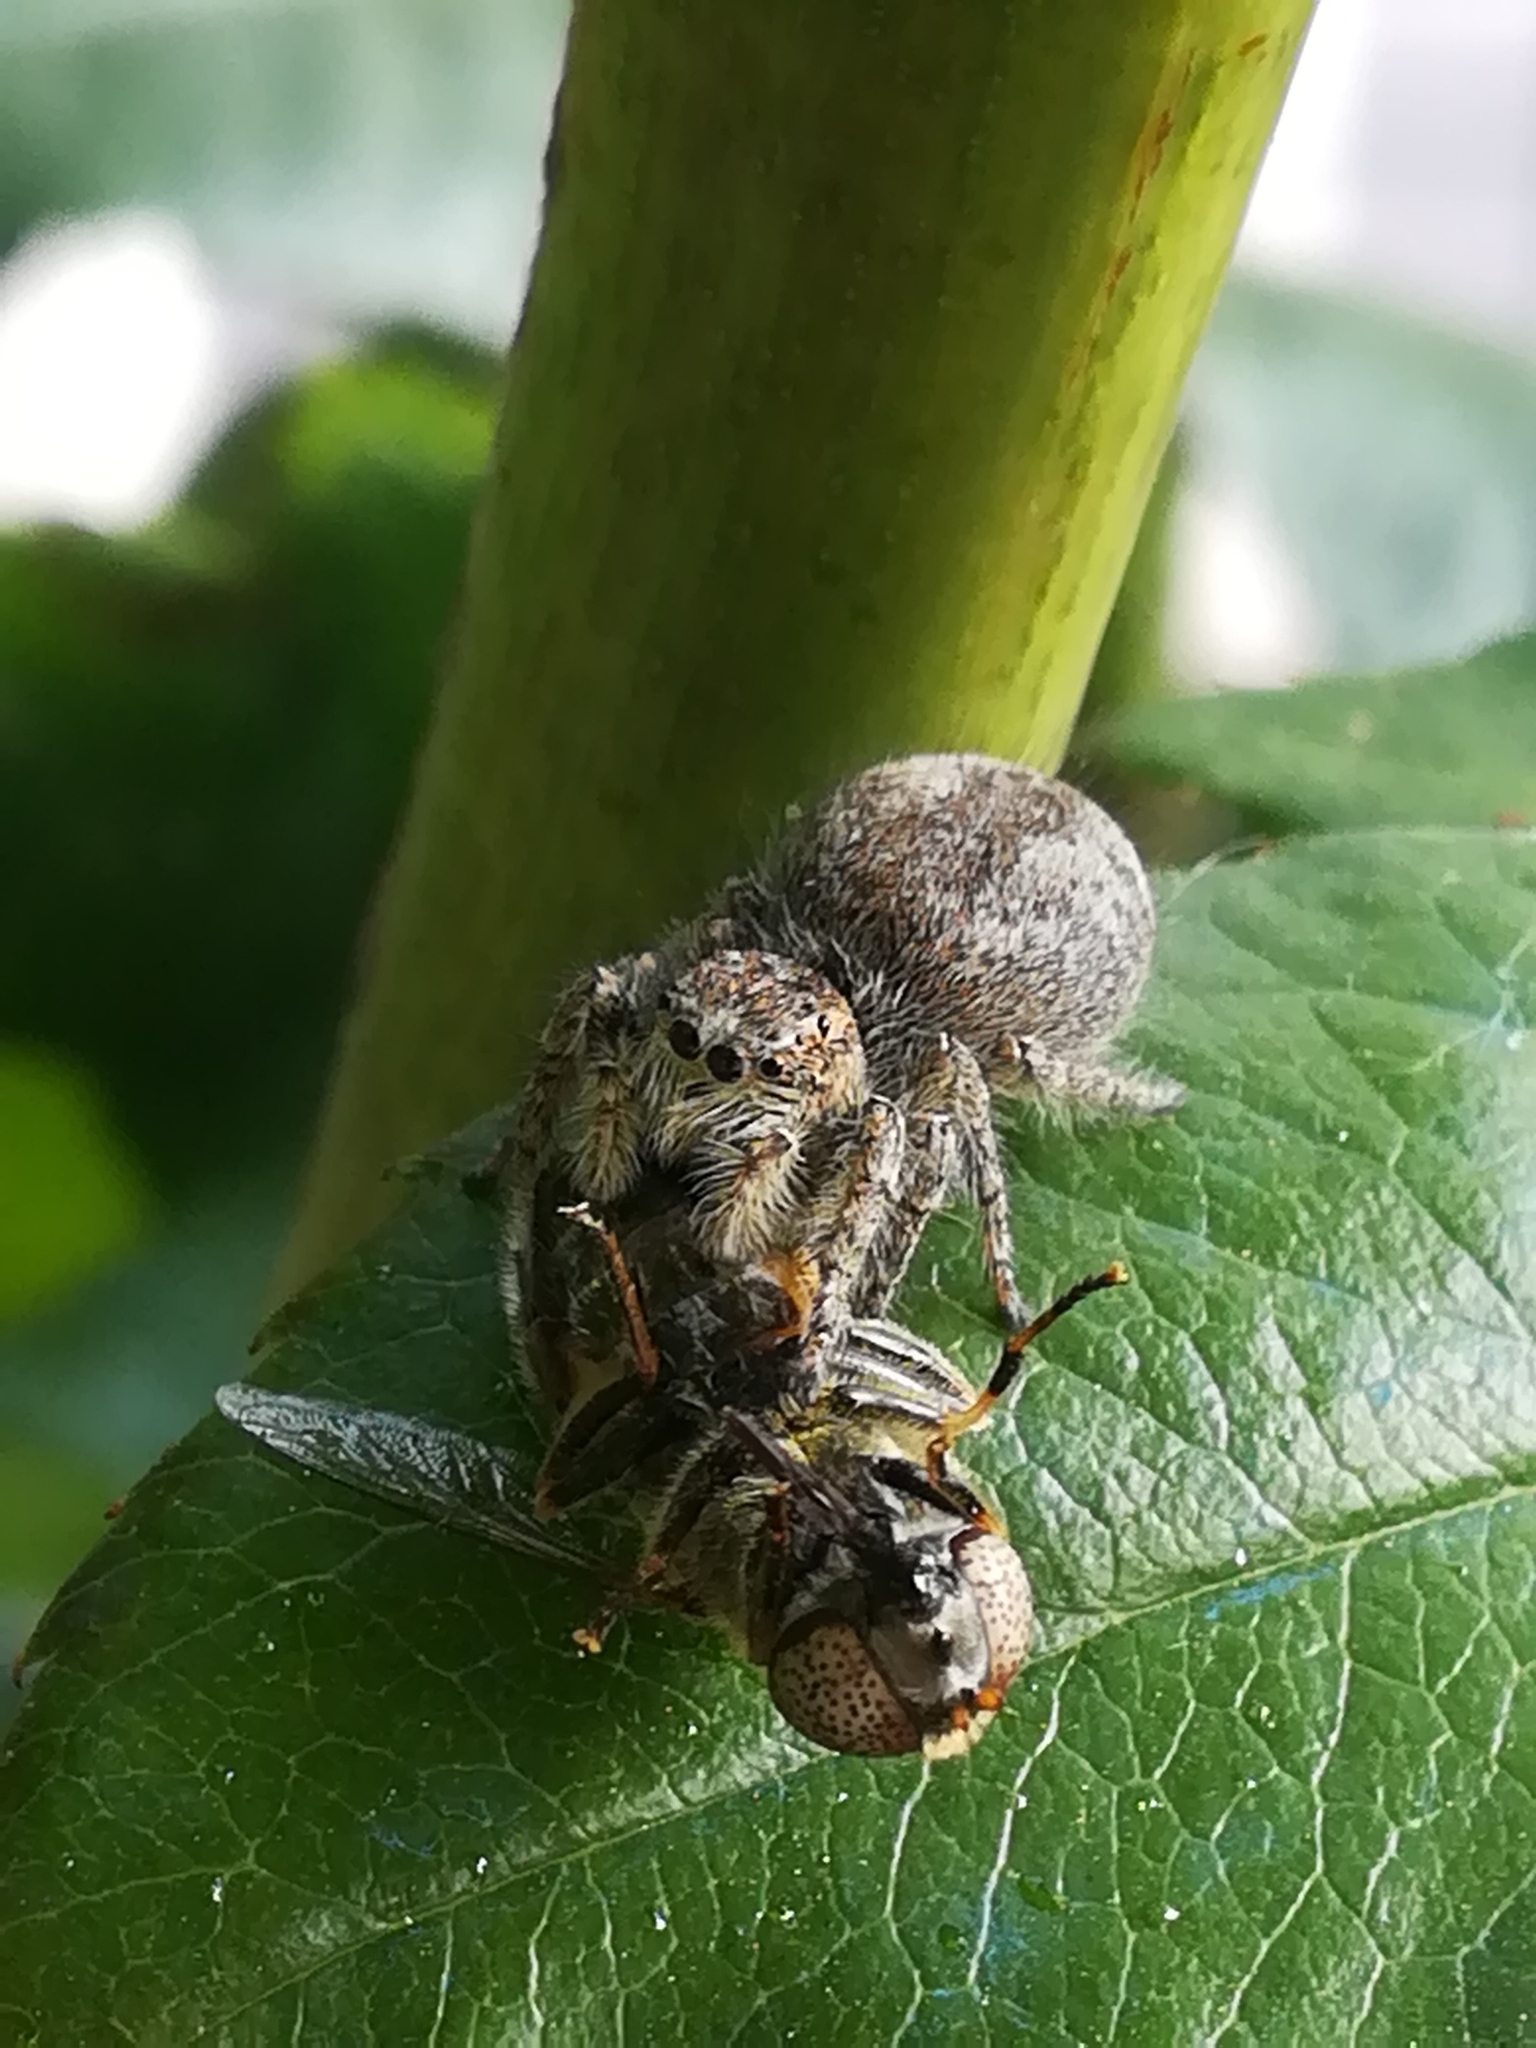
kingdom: Animalia
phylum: Arthropoda
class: Arachnida
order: Araneae
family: Salticidae
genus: Philaeus
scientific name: Philaeus chrysops
